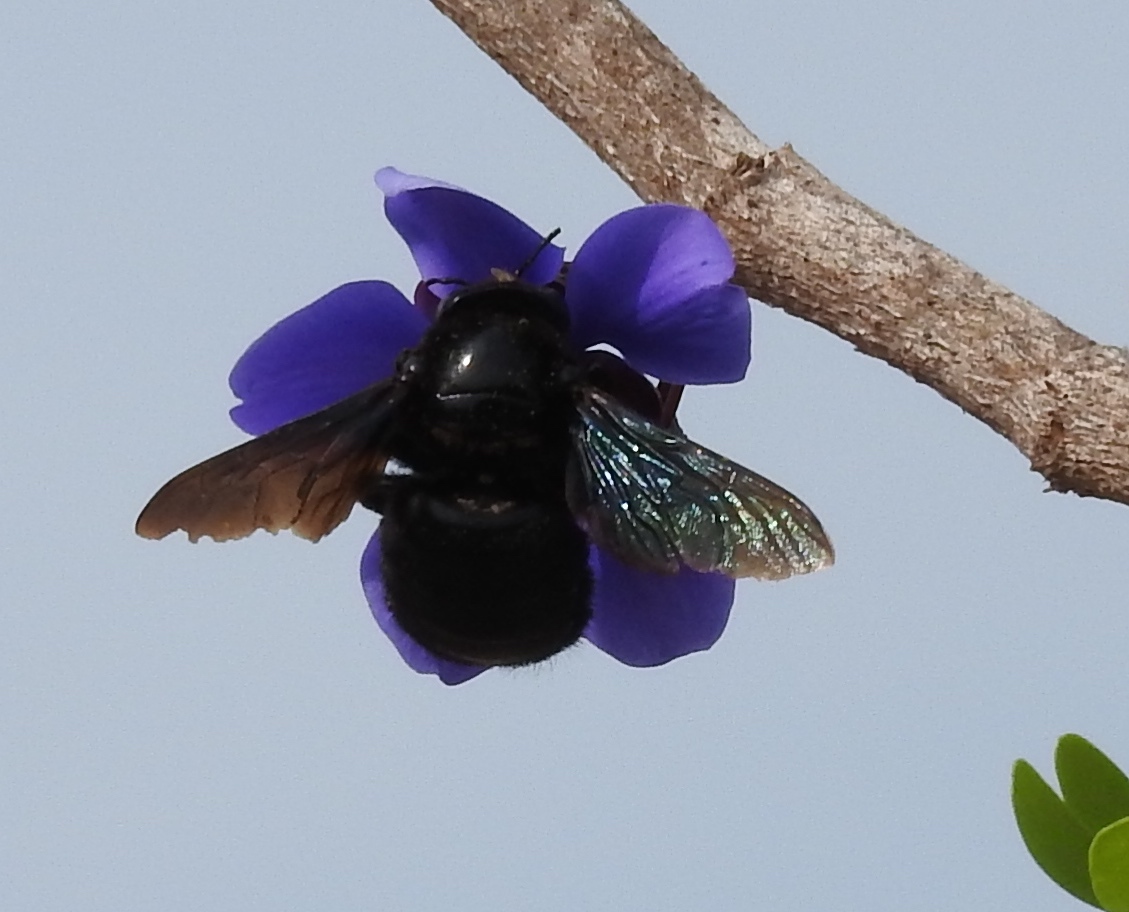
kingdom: Animalia
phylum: Arthropoda
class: Insecta
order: Hymenoptera
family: Apidae
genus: Xylocopa
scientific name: Xylocopa
